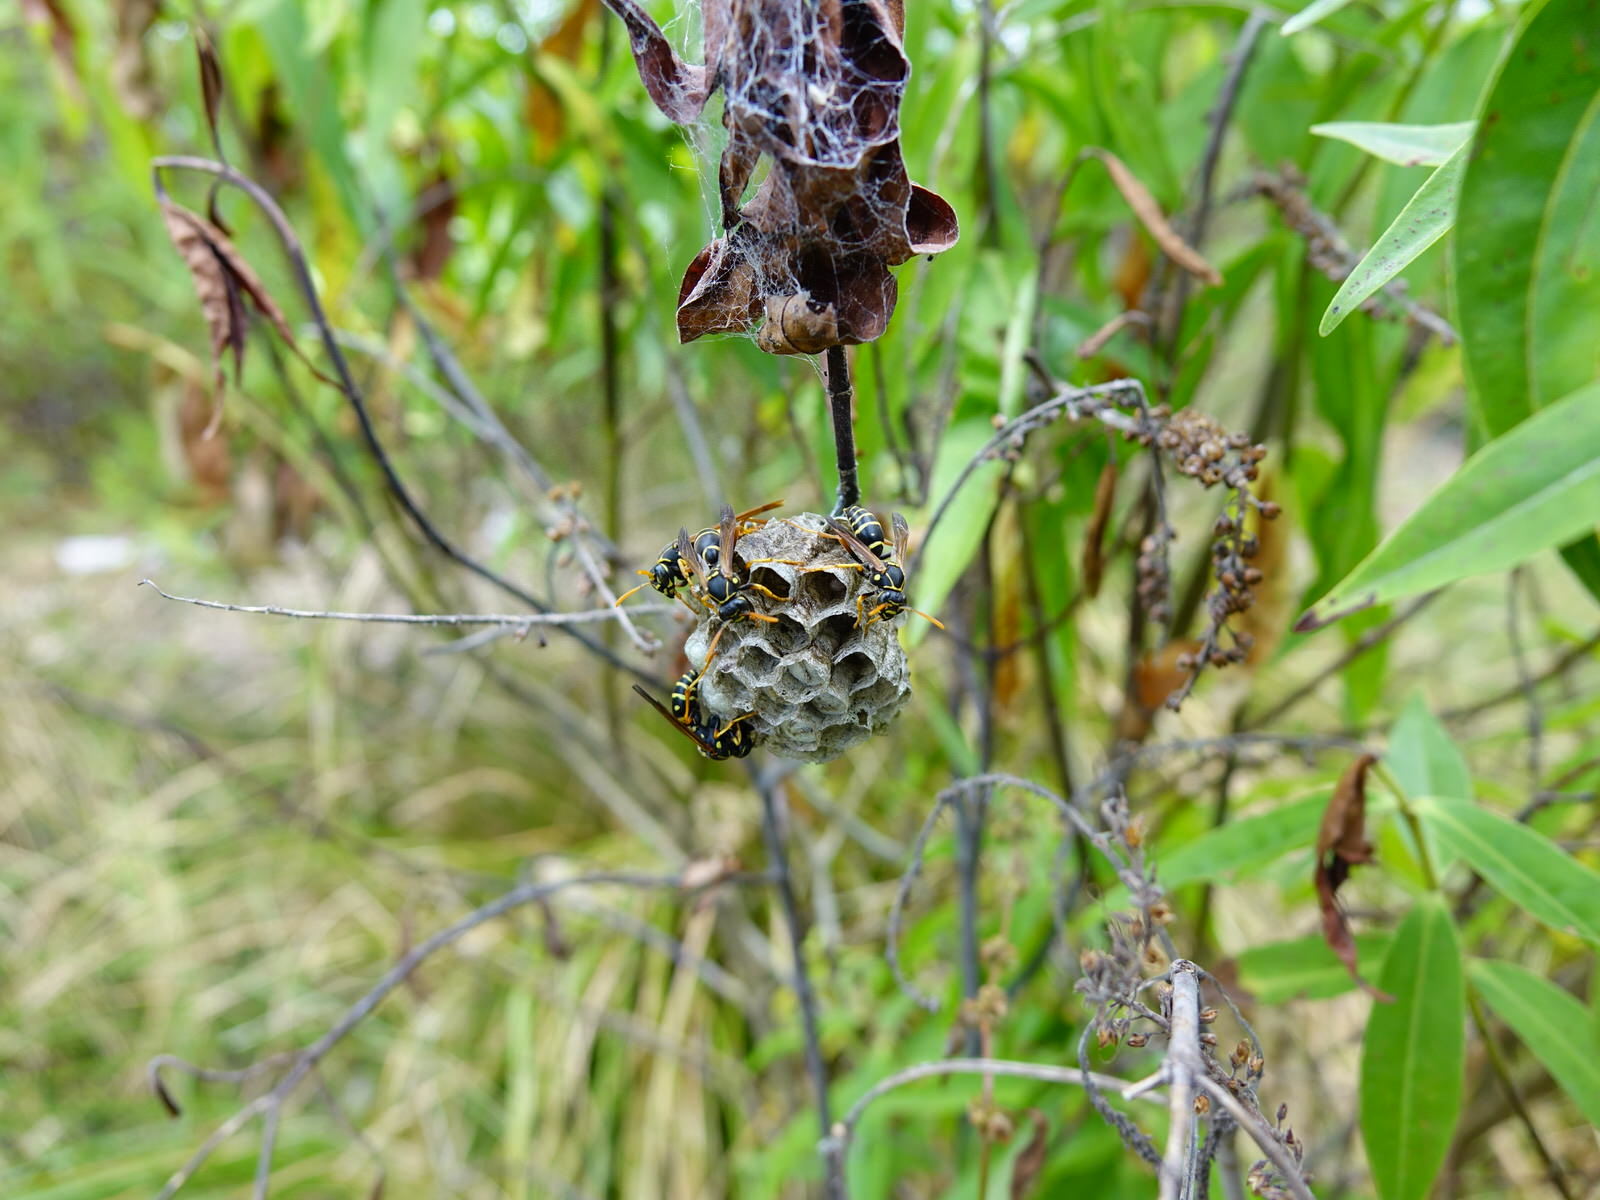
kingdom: Animalia
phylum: Arthropoda
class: Insecta
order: Hymenoptera
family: Eumenidae
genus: Polistes
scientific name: Polistes chinensis
